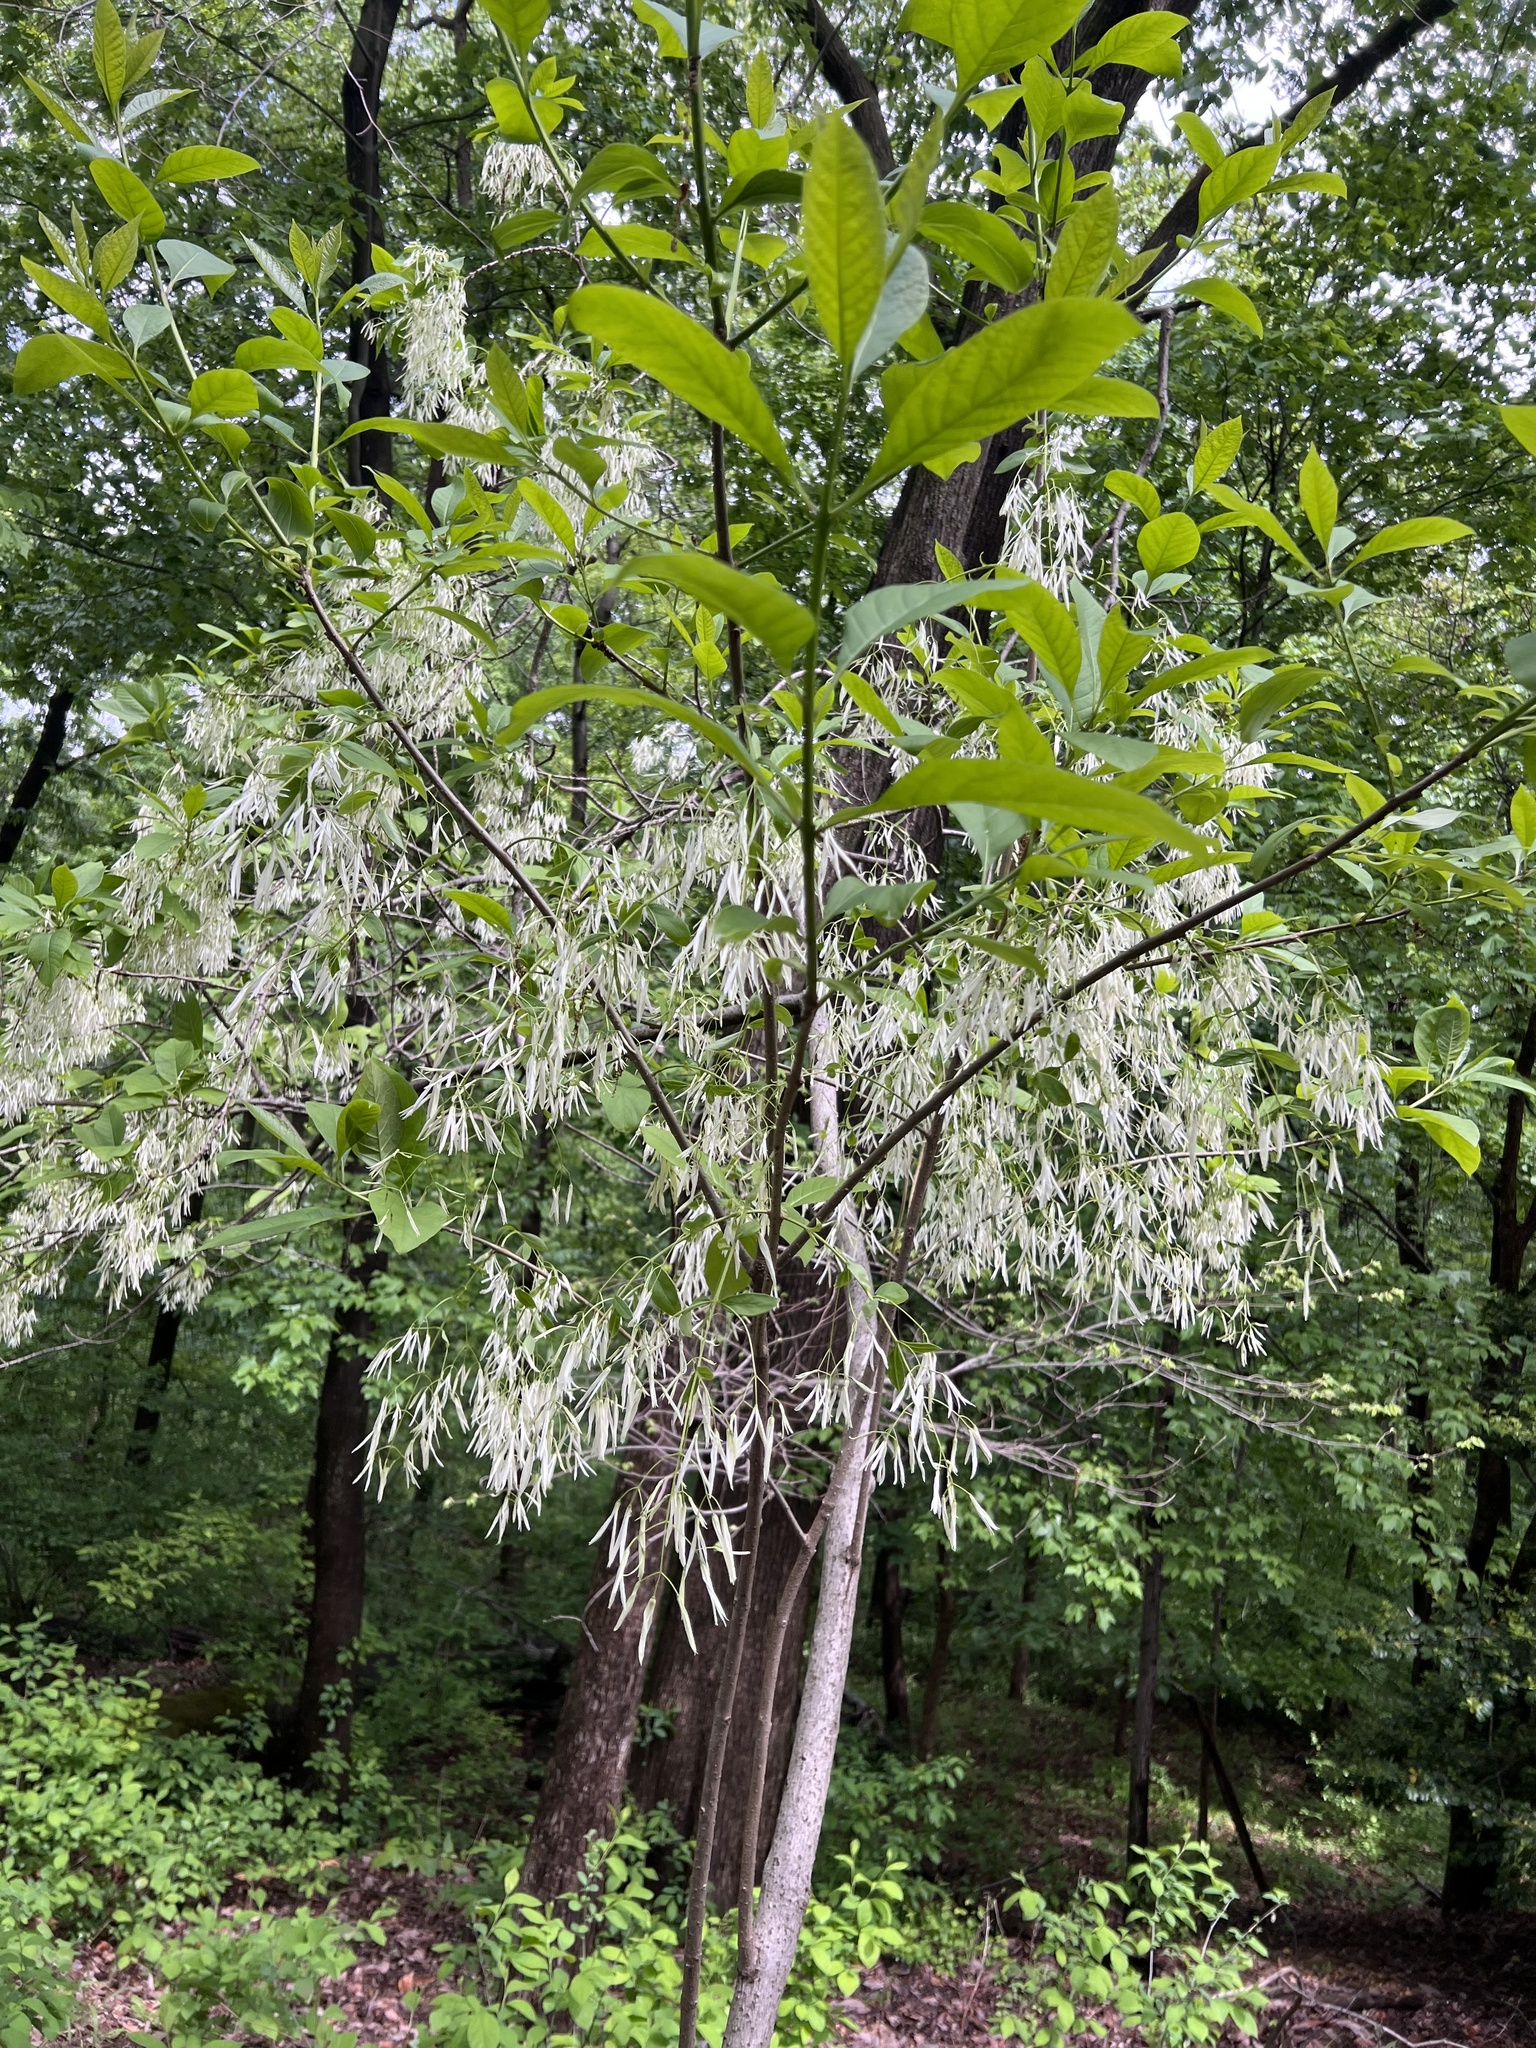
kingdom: Plantae
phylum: Tracheophyta
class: Magnoliopsida
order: Lamiales
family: Oleaceae
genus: Chionanthus
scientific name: Chionanthus virginicus
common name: American fringetree
